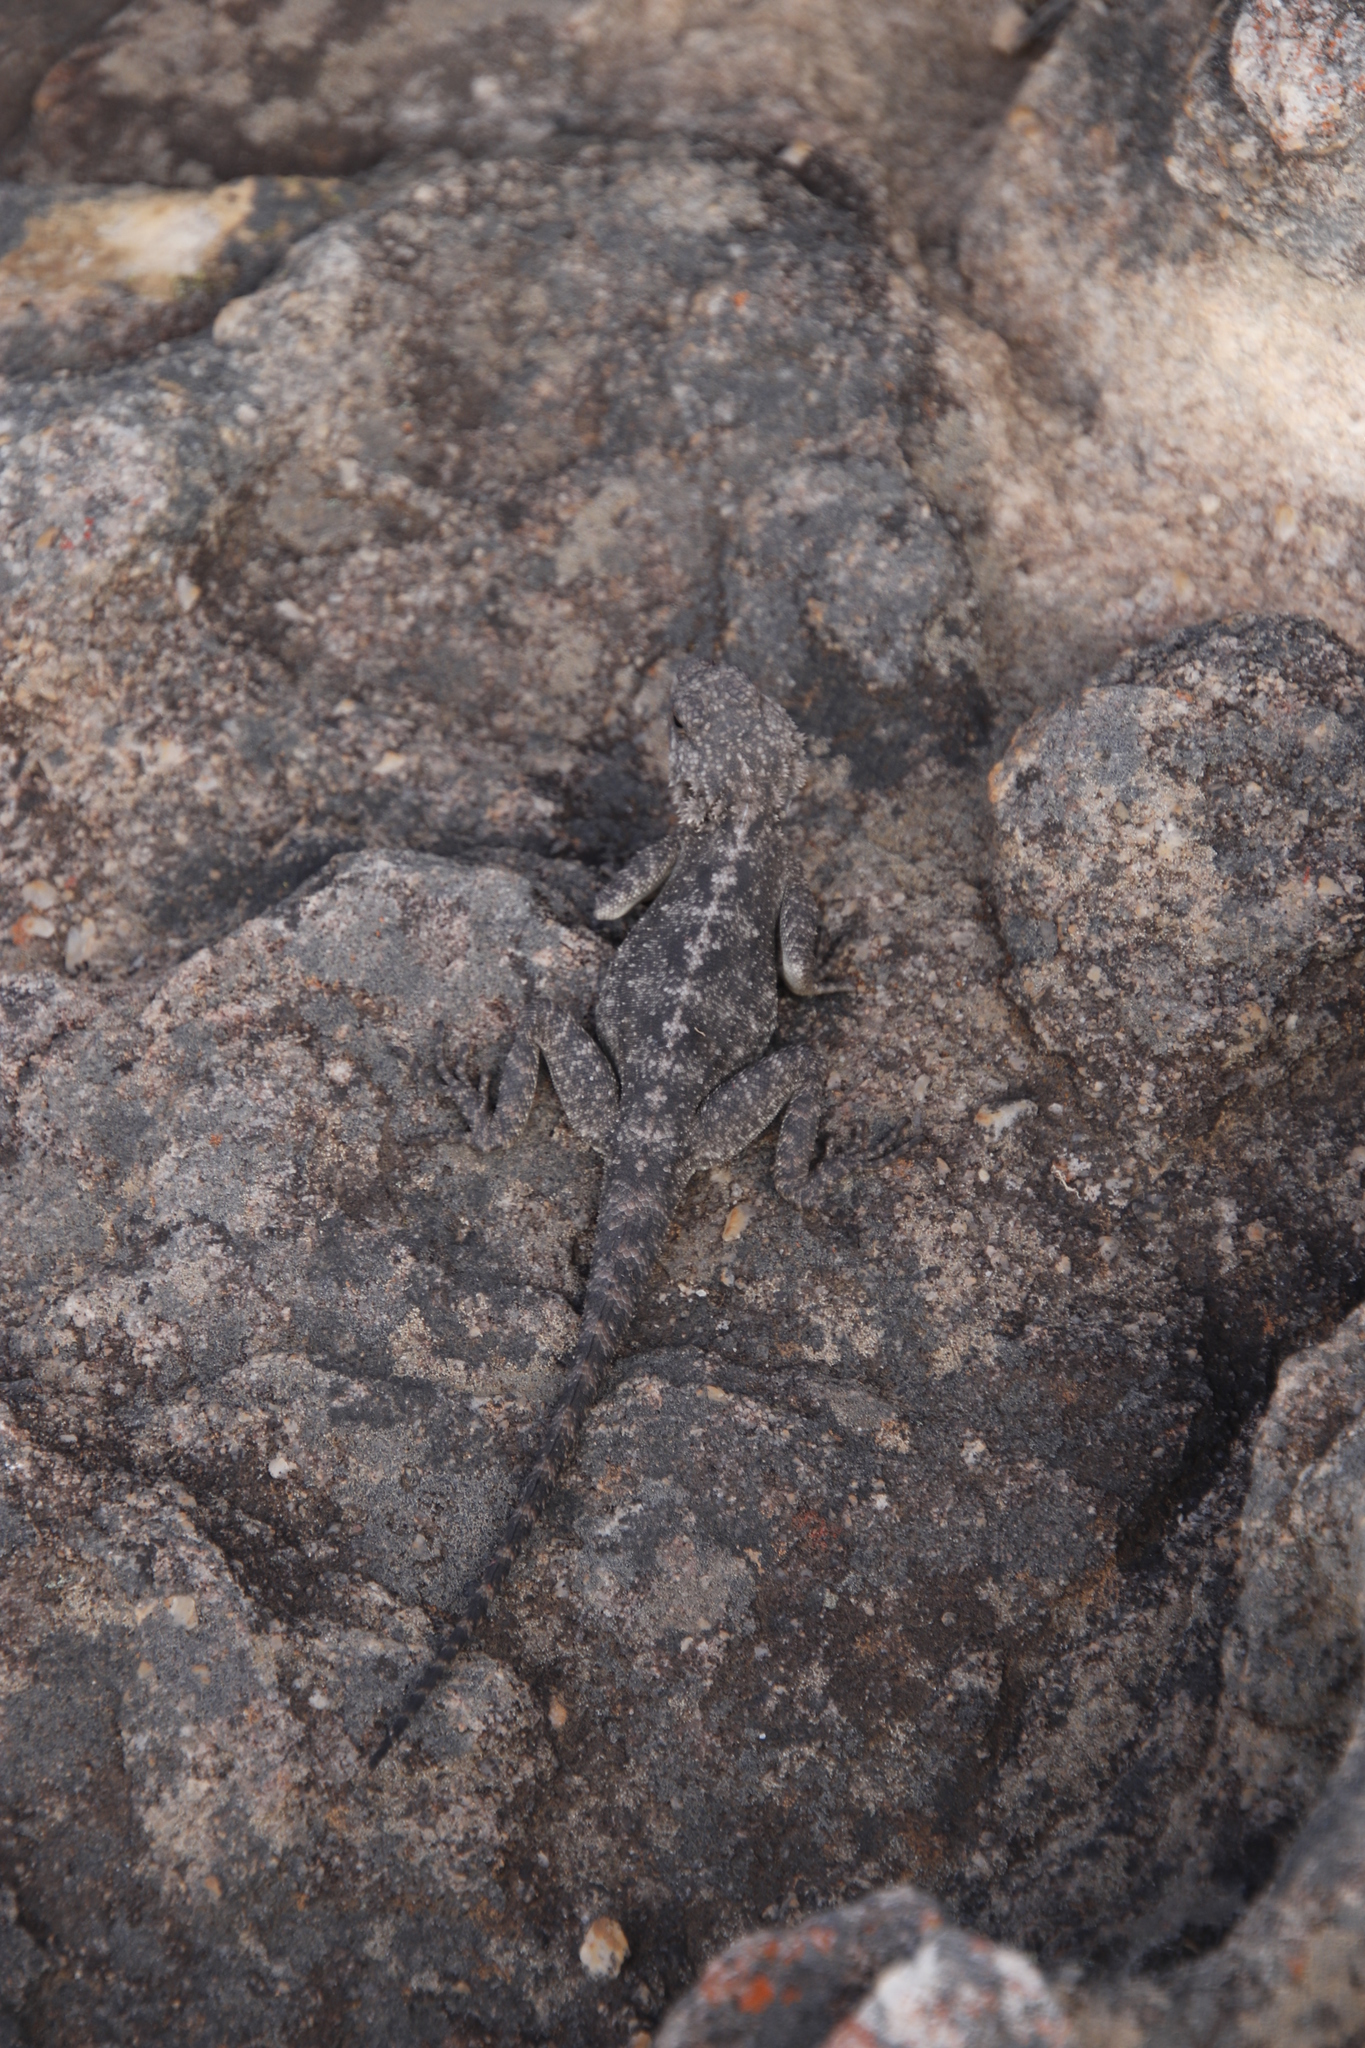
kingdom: Animalia
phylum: Chordata
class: Squamata
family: Agamidae
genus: Agama
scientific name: Agama atra
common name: Southern african rock agama
